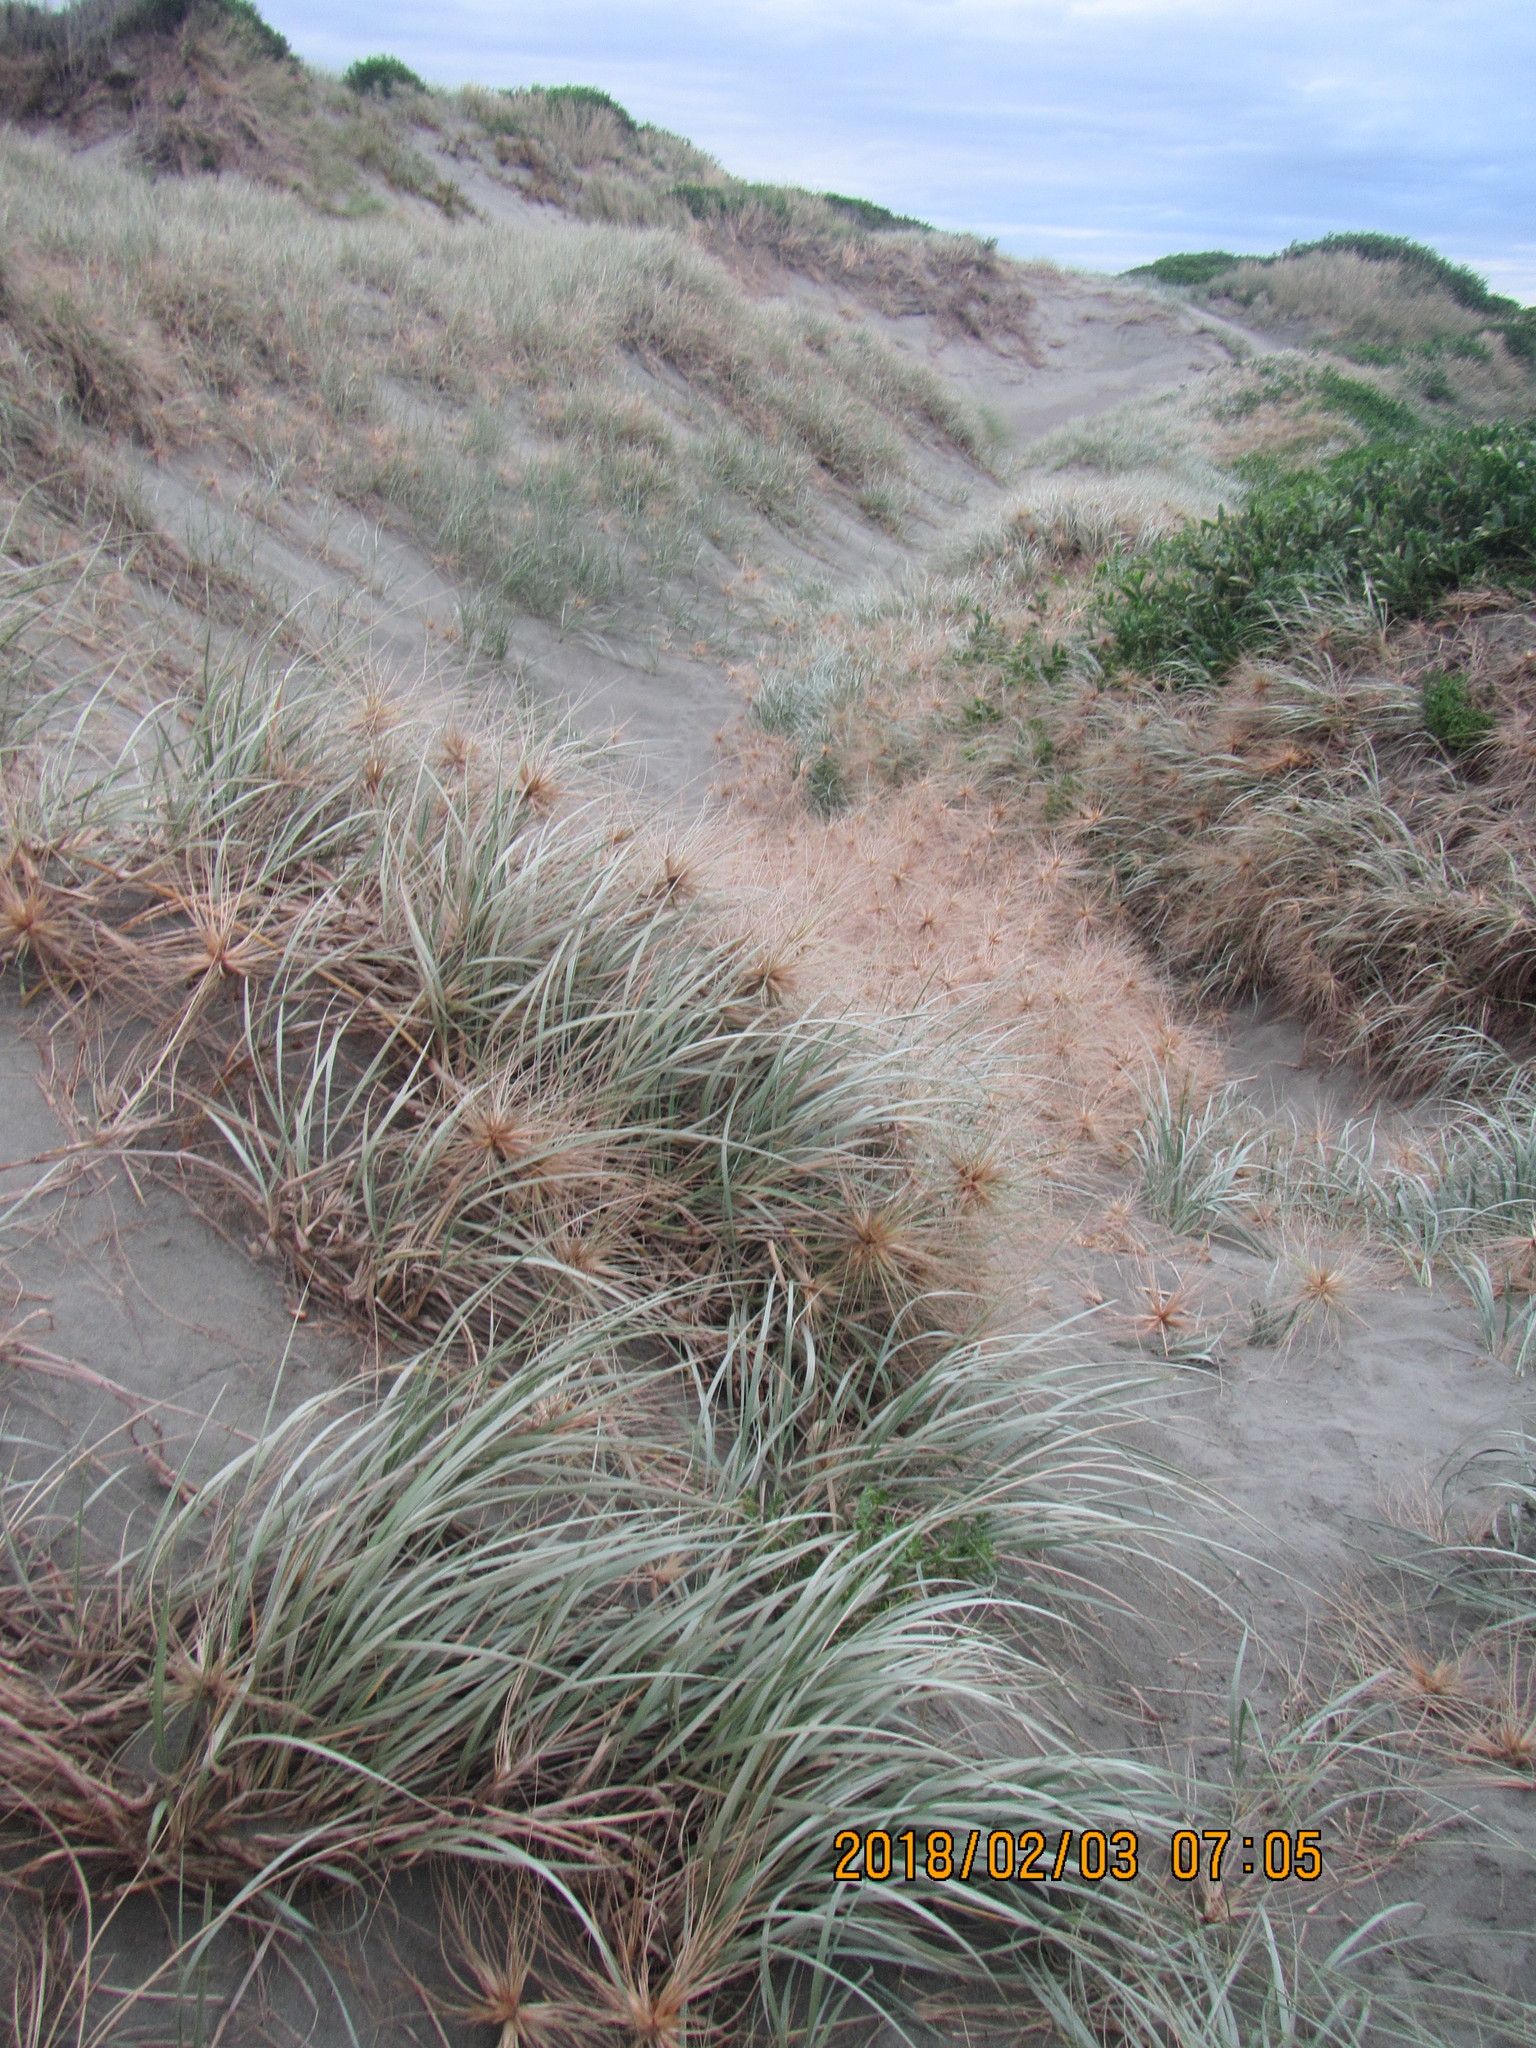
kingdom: Plantae
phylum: Tracheophyta
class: Liliopsida
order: Poales
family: Poaceae
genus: Spinifex
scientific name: Spinifex sericeus
